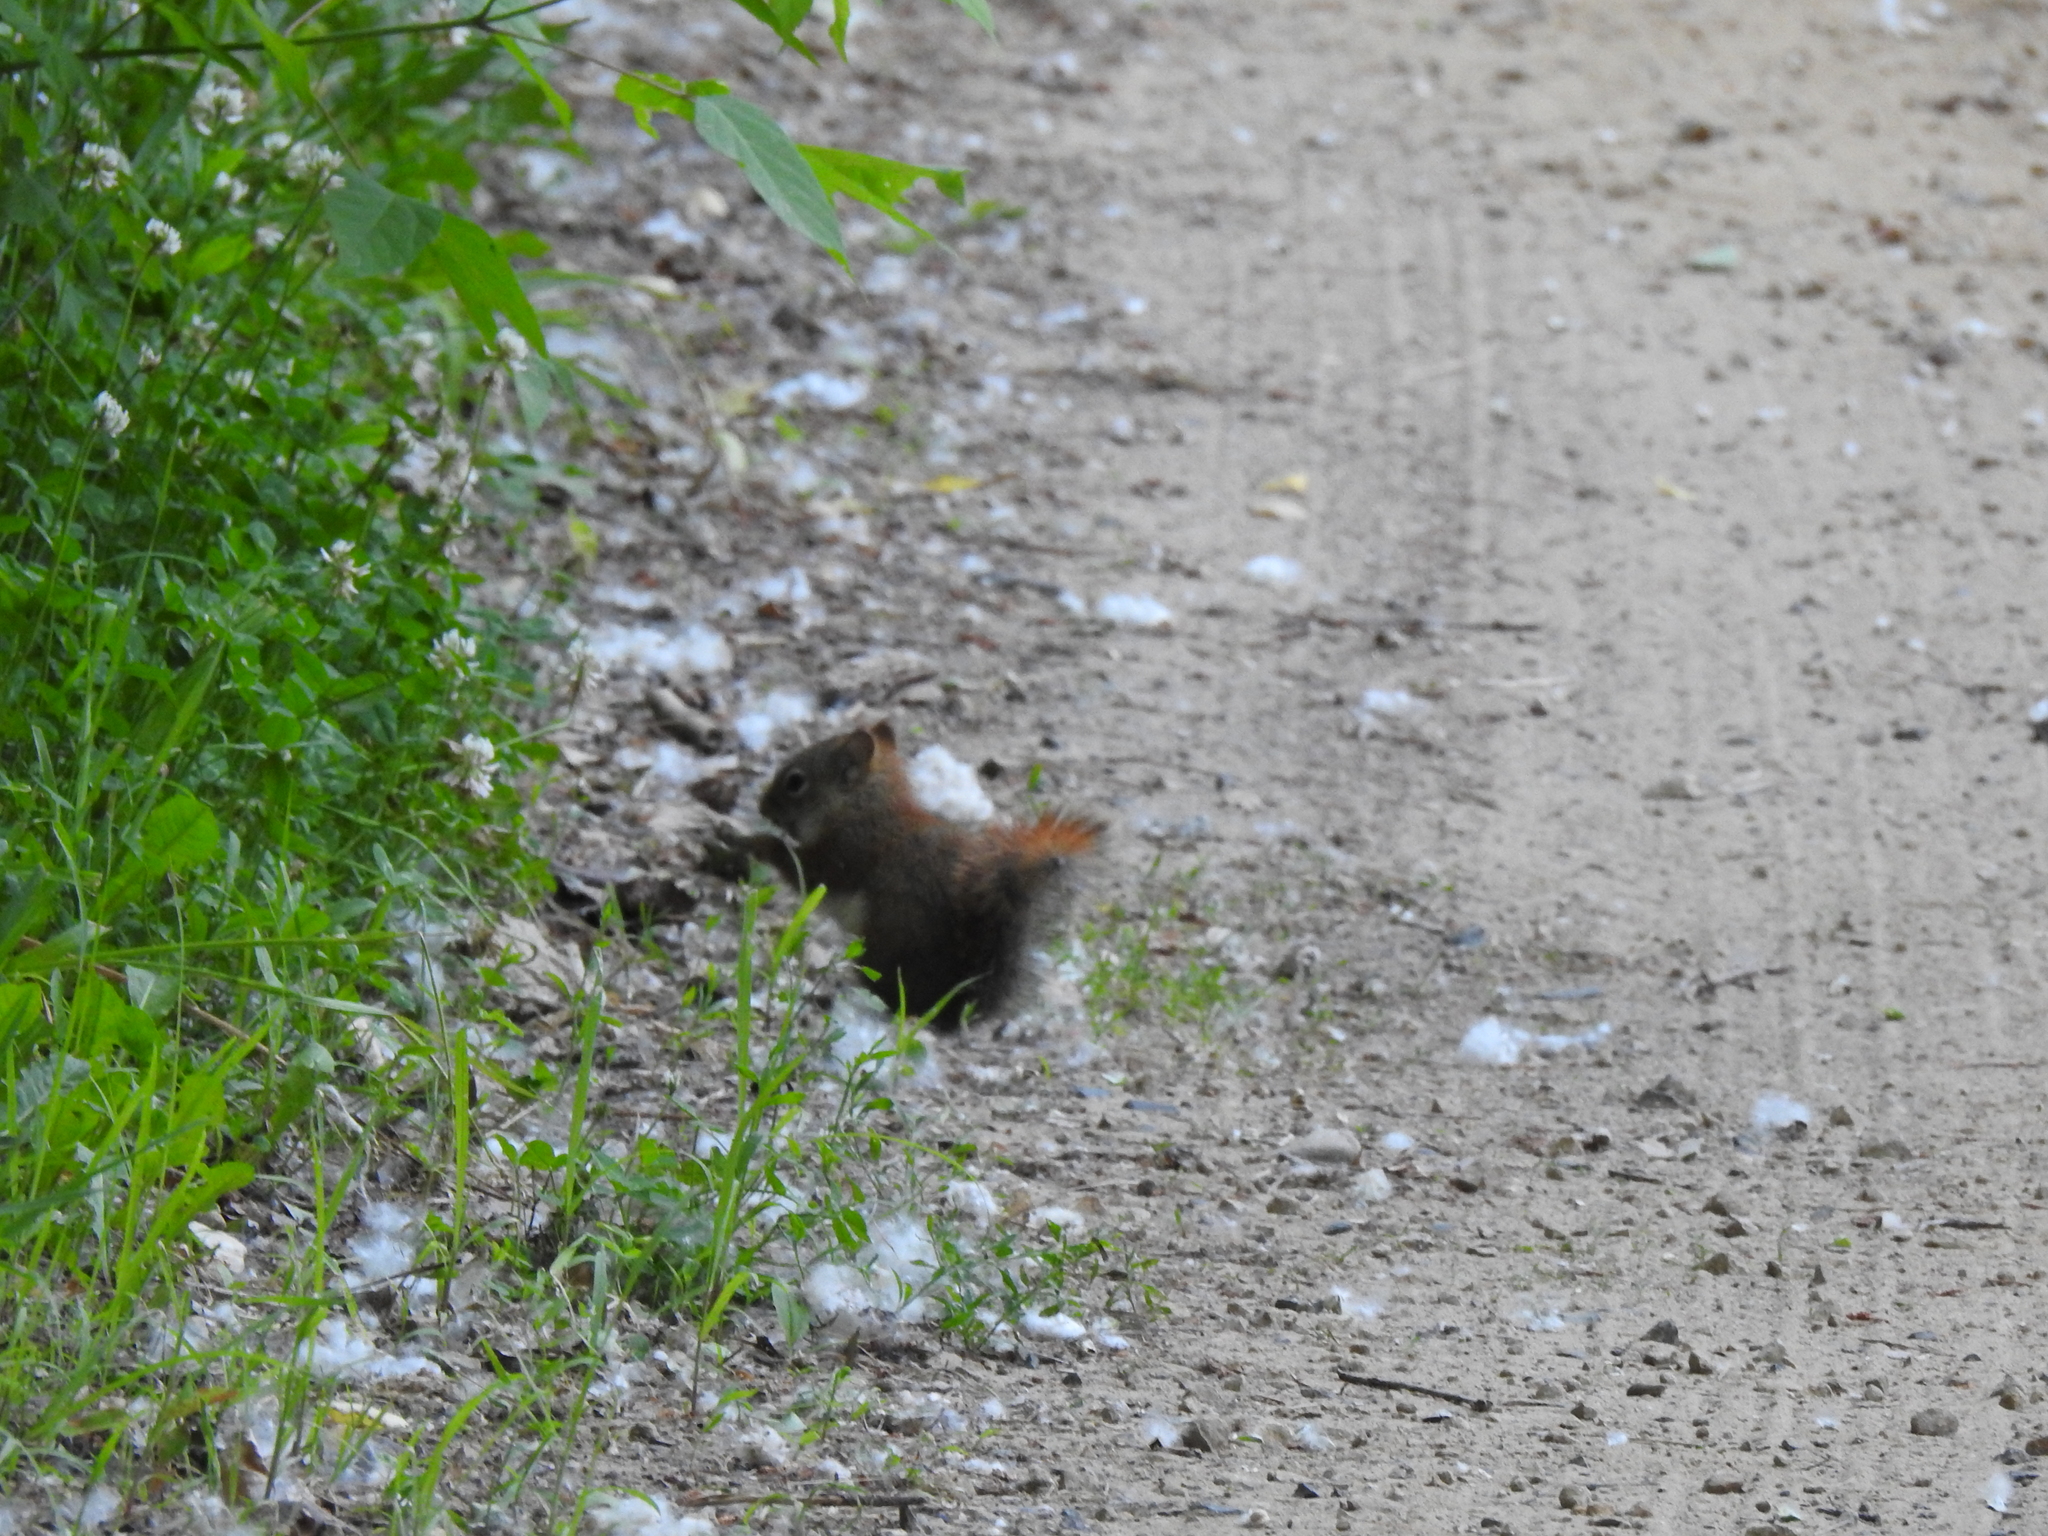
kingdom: Animalia
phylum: Chordata
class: Mammalia
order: Rodentia
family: Sciuridae
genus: Tamiasciurus
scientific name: Tamiasciurus hudsonicus
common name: Red squirrel
